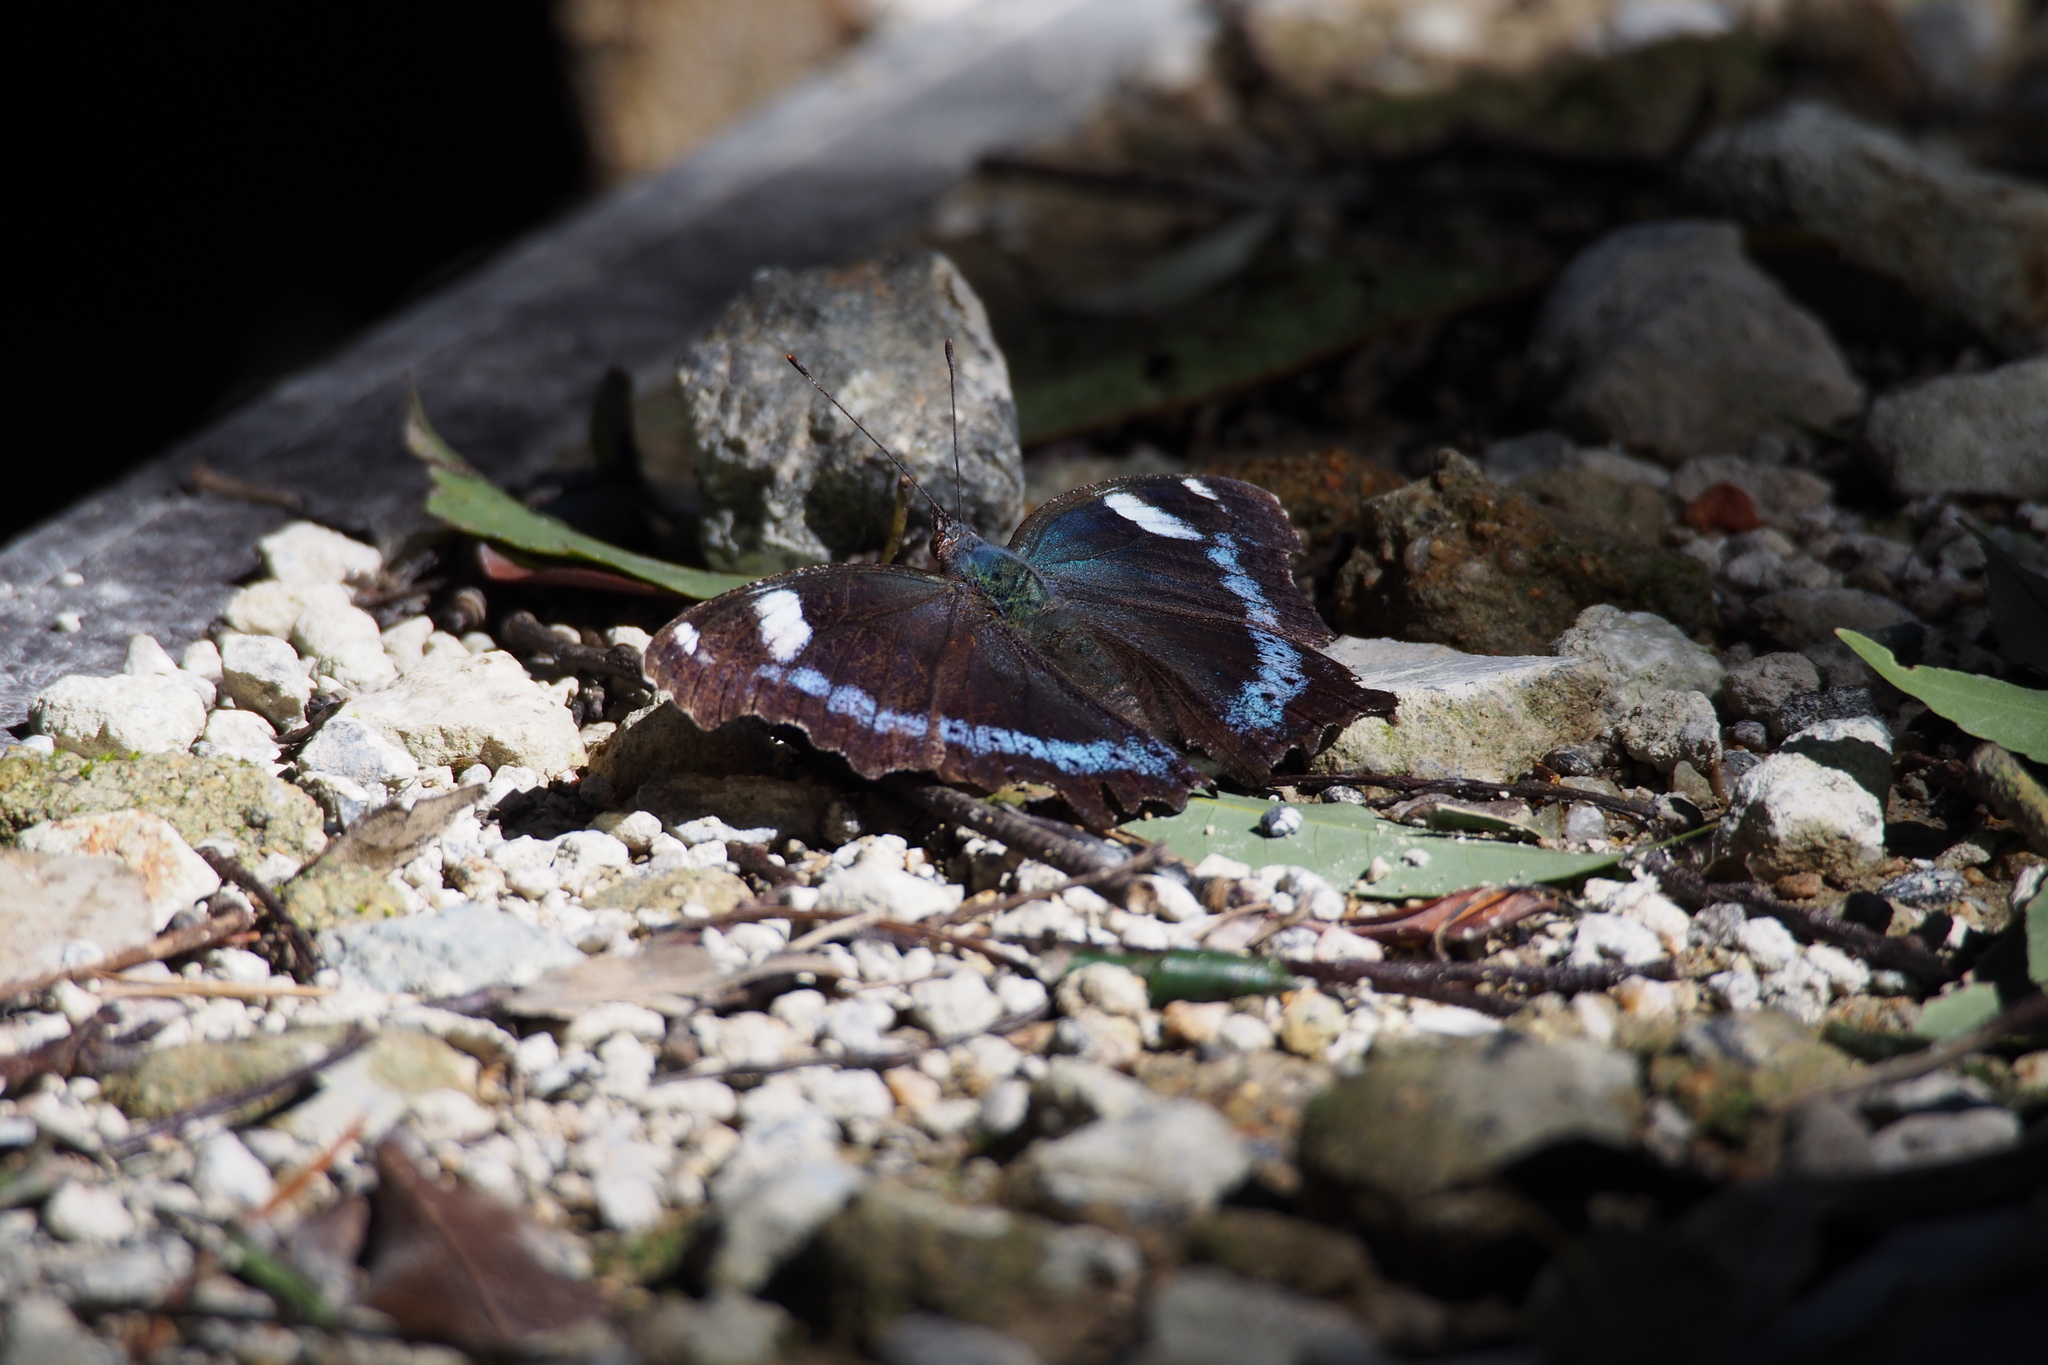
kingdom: Animalia
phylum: Arthropoda
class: Insecta
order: Lepidoptera
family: Nymphalidae
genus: Vanessa
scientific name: Vanessa Kaniska canace
